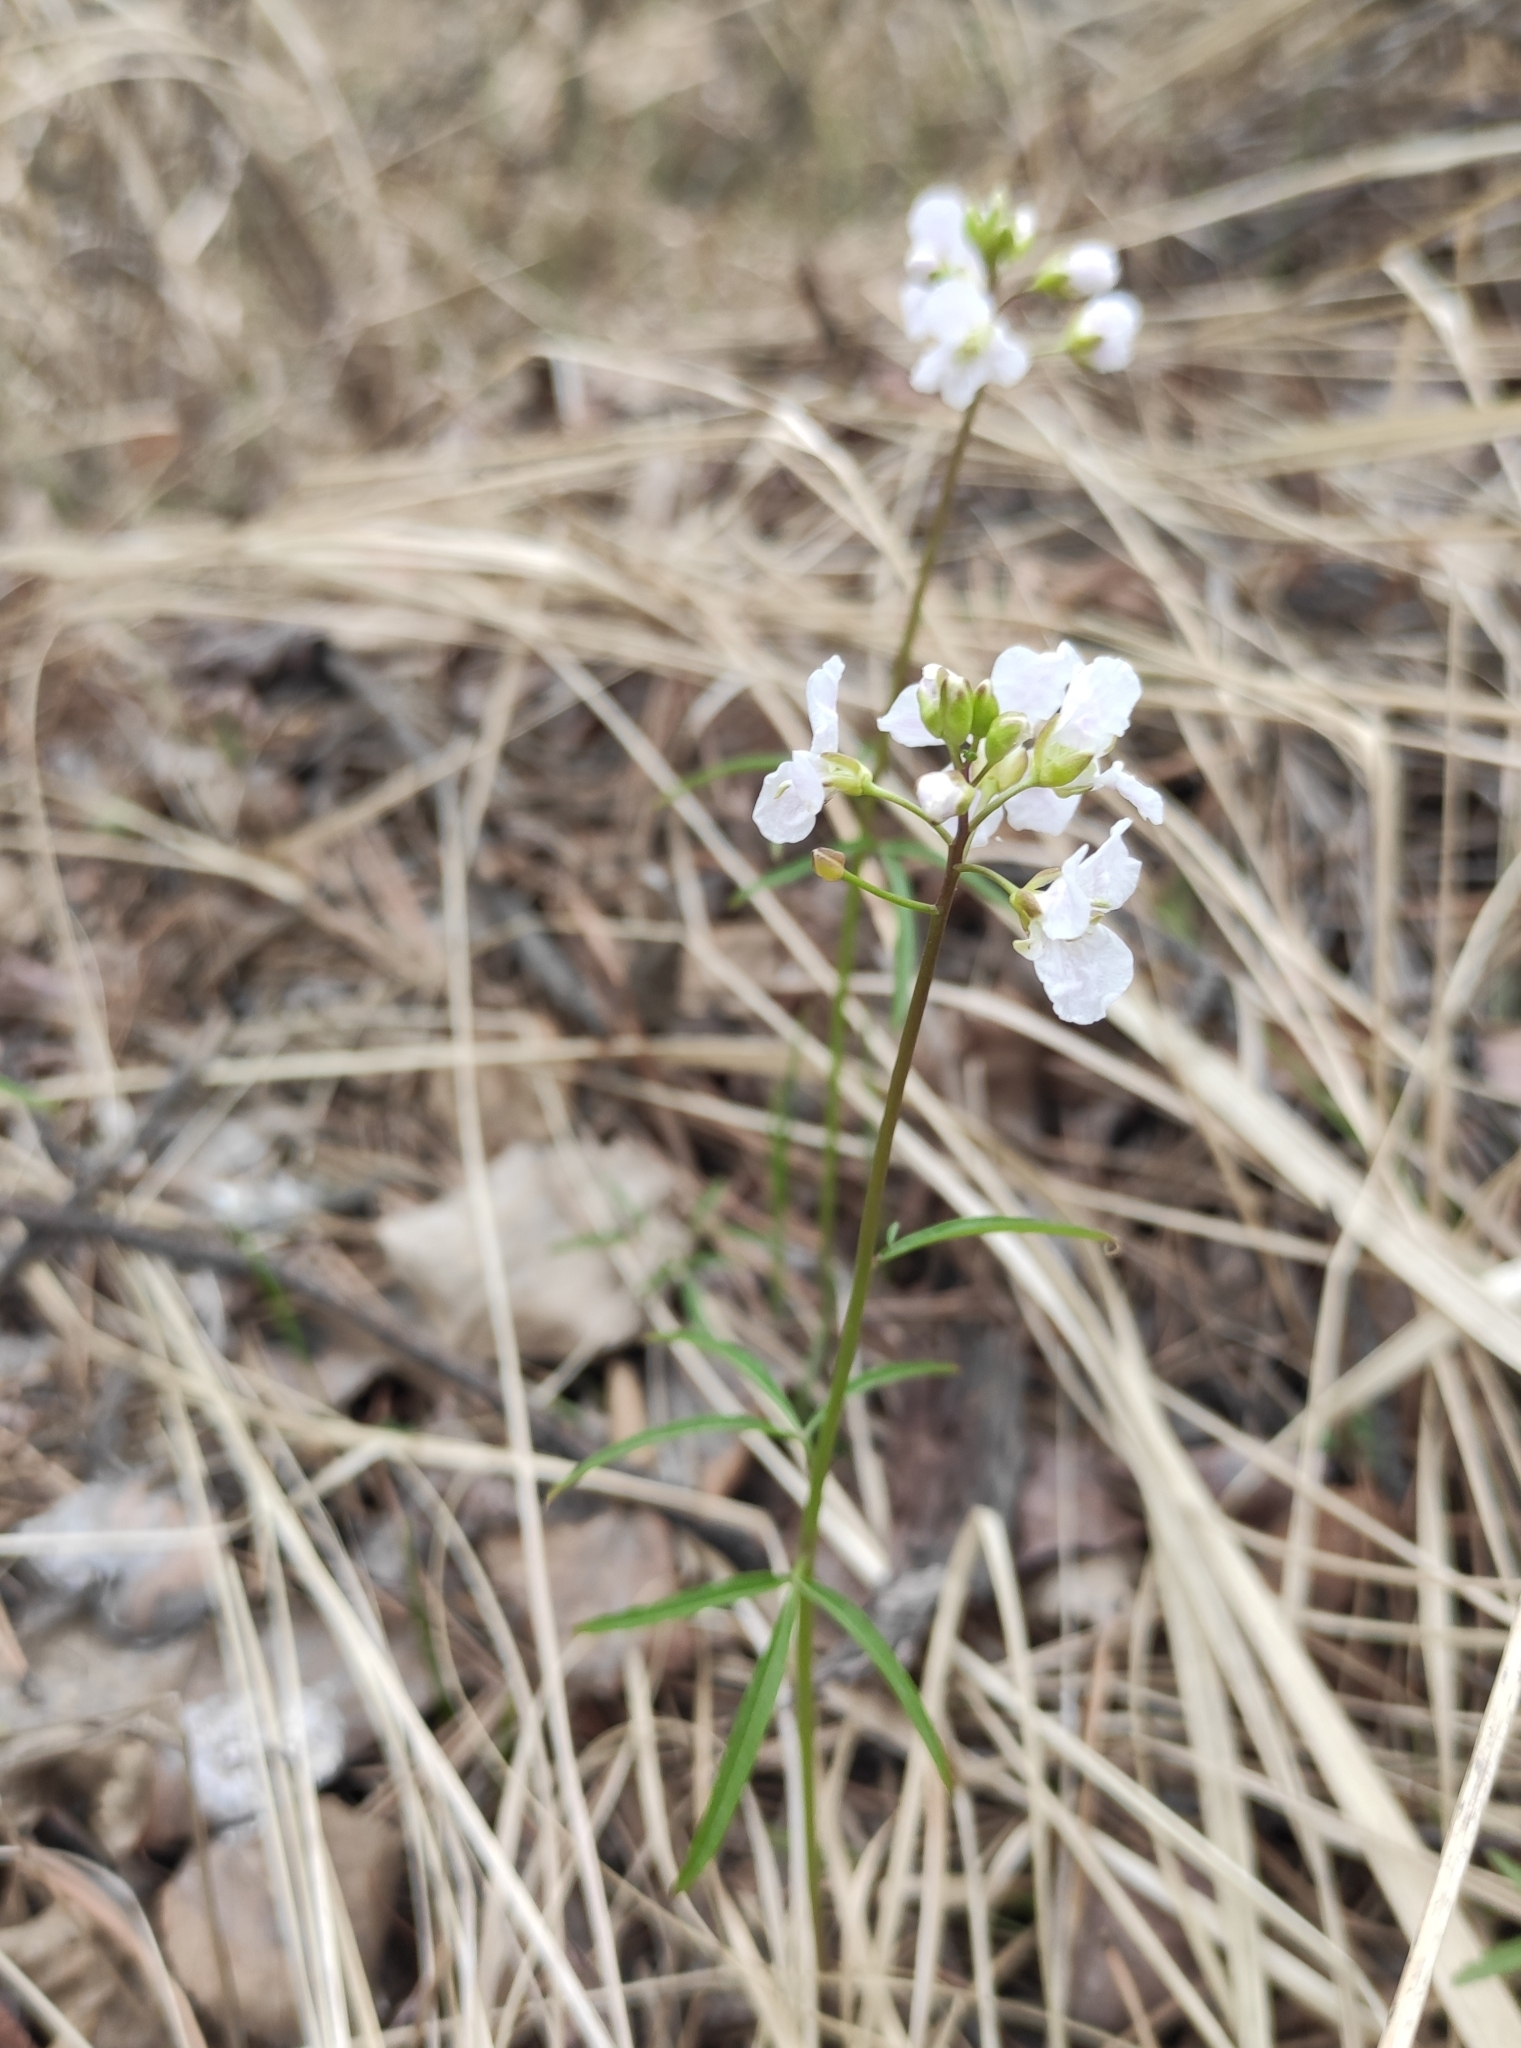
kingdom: Plantae
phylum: Tracheophyta
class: Magnoliopsida
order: Brassicales
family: Brassicaceae
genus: Cardamine
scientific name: Cardamine trifida
